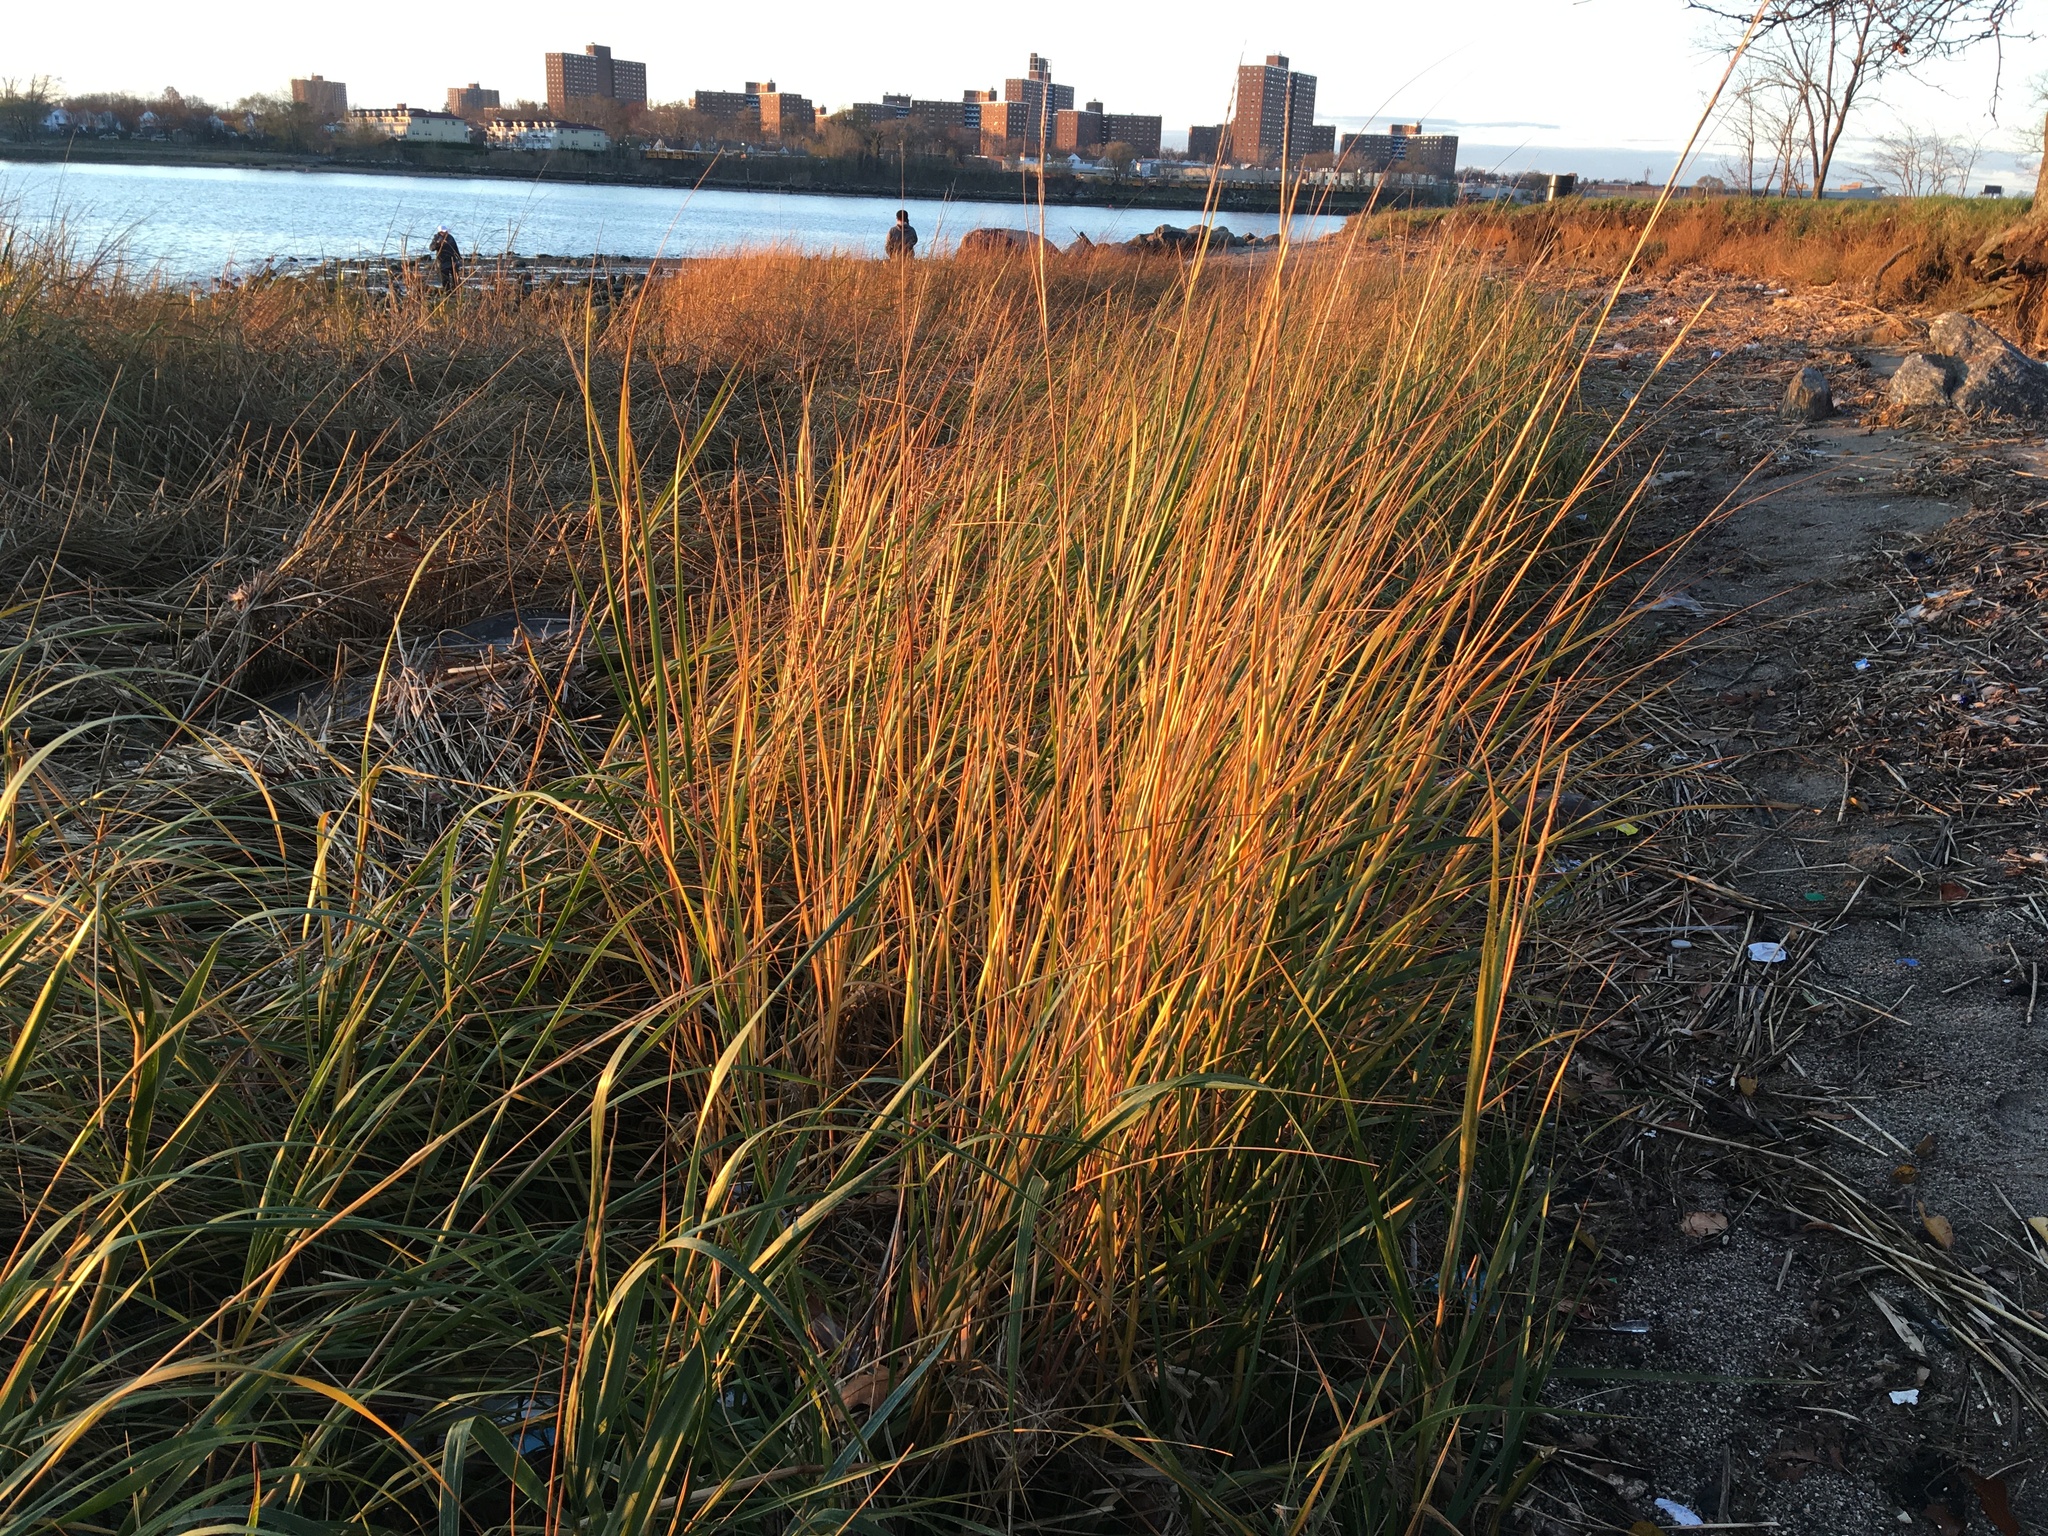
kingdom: Plantae
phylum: Tracheophyta
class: Liliopsida
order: Poales
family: Poaceae
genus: Sporobolus
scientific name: Sporobolus alterniflorus
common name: Atlantic cordgrass
